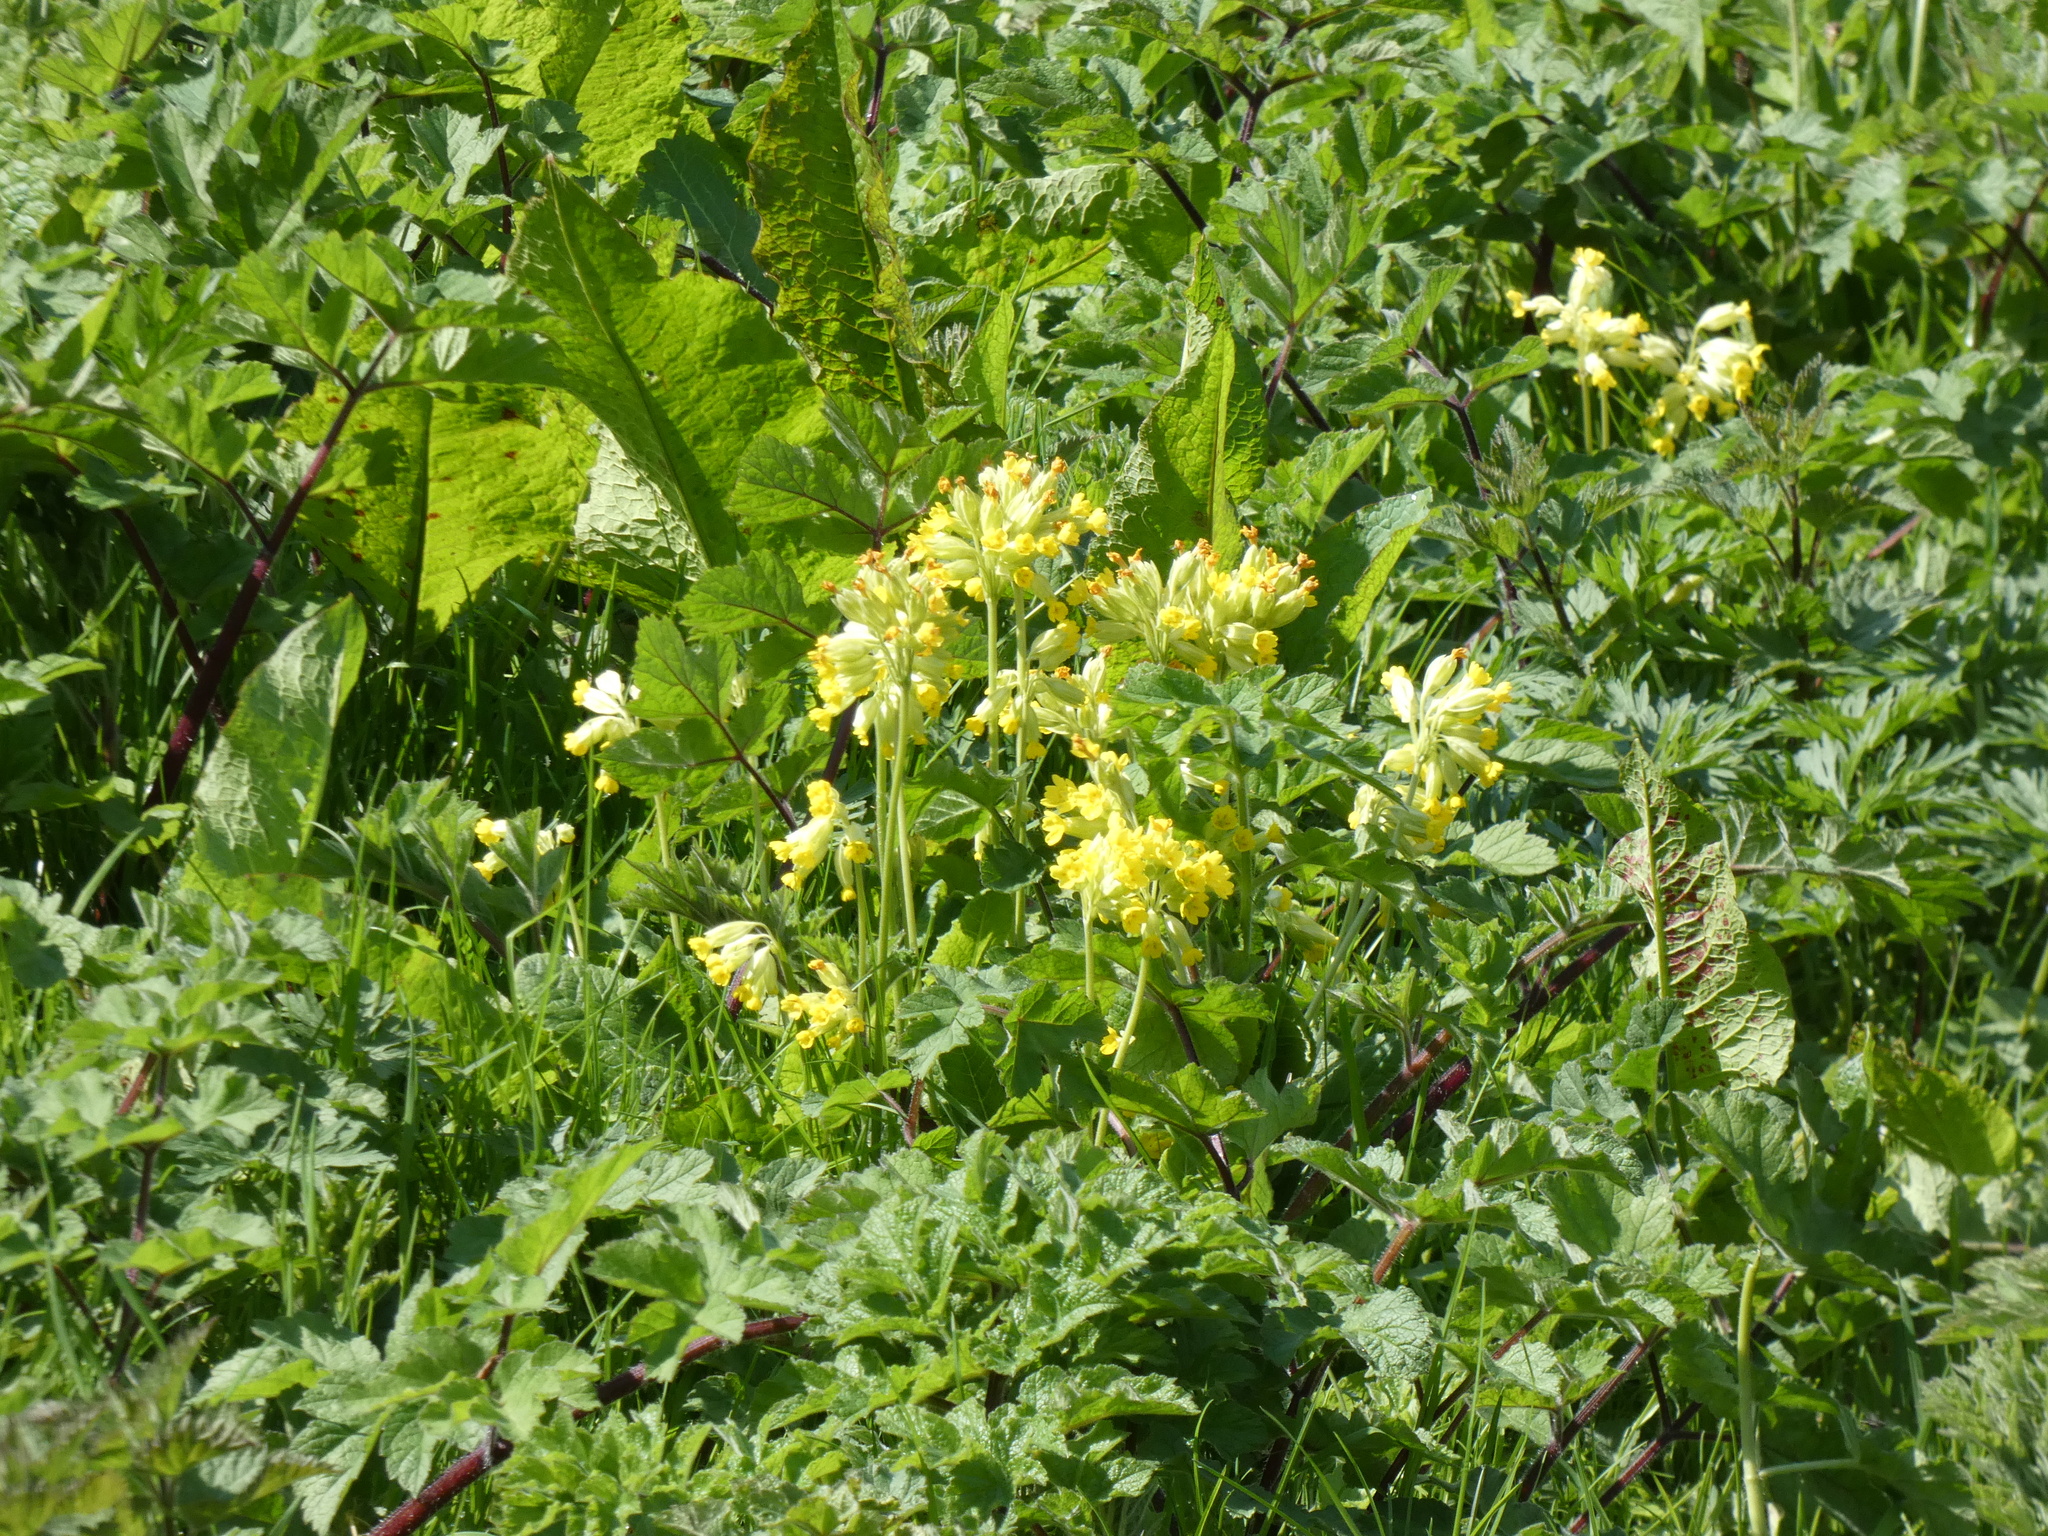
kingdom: Plantae
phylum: Tracheophyta
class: Magnoliopsida
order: Ericales
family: Primulaceae
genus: Primula
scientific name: Primula veris
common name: Cowslip
